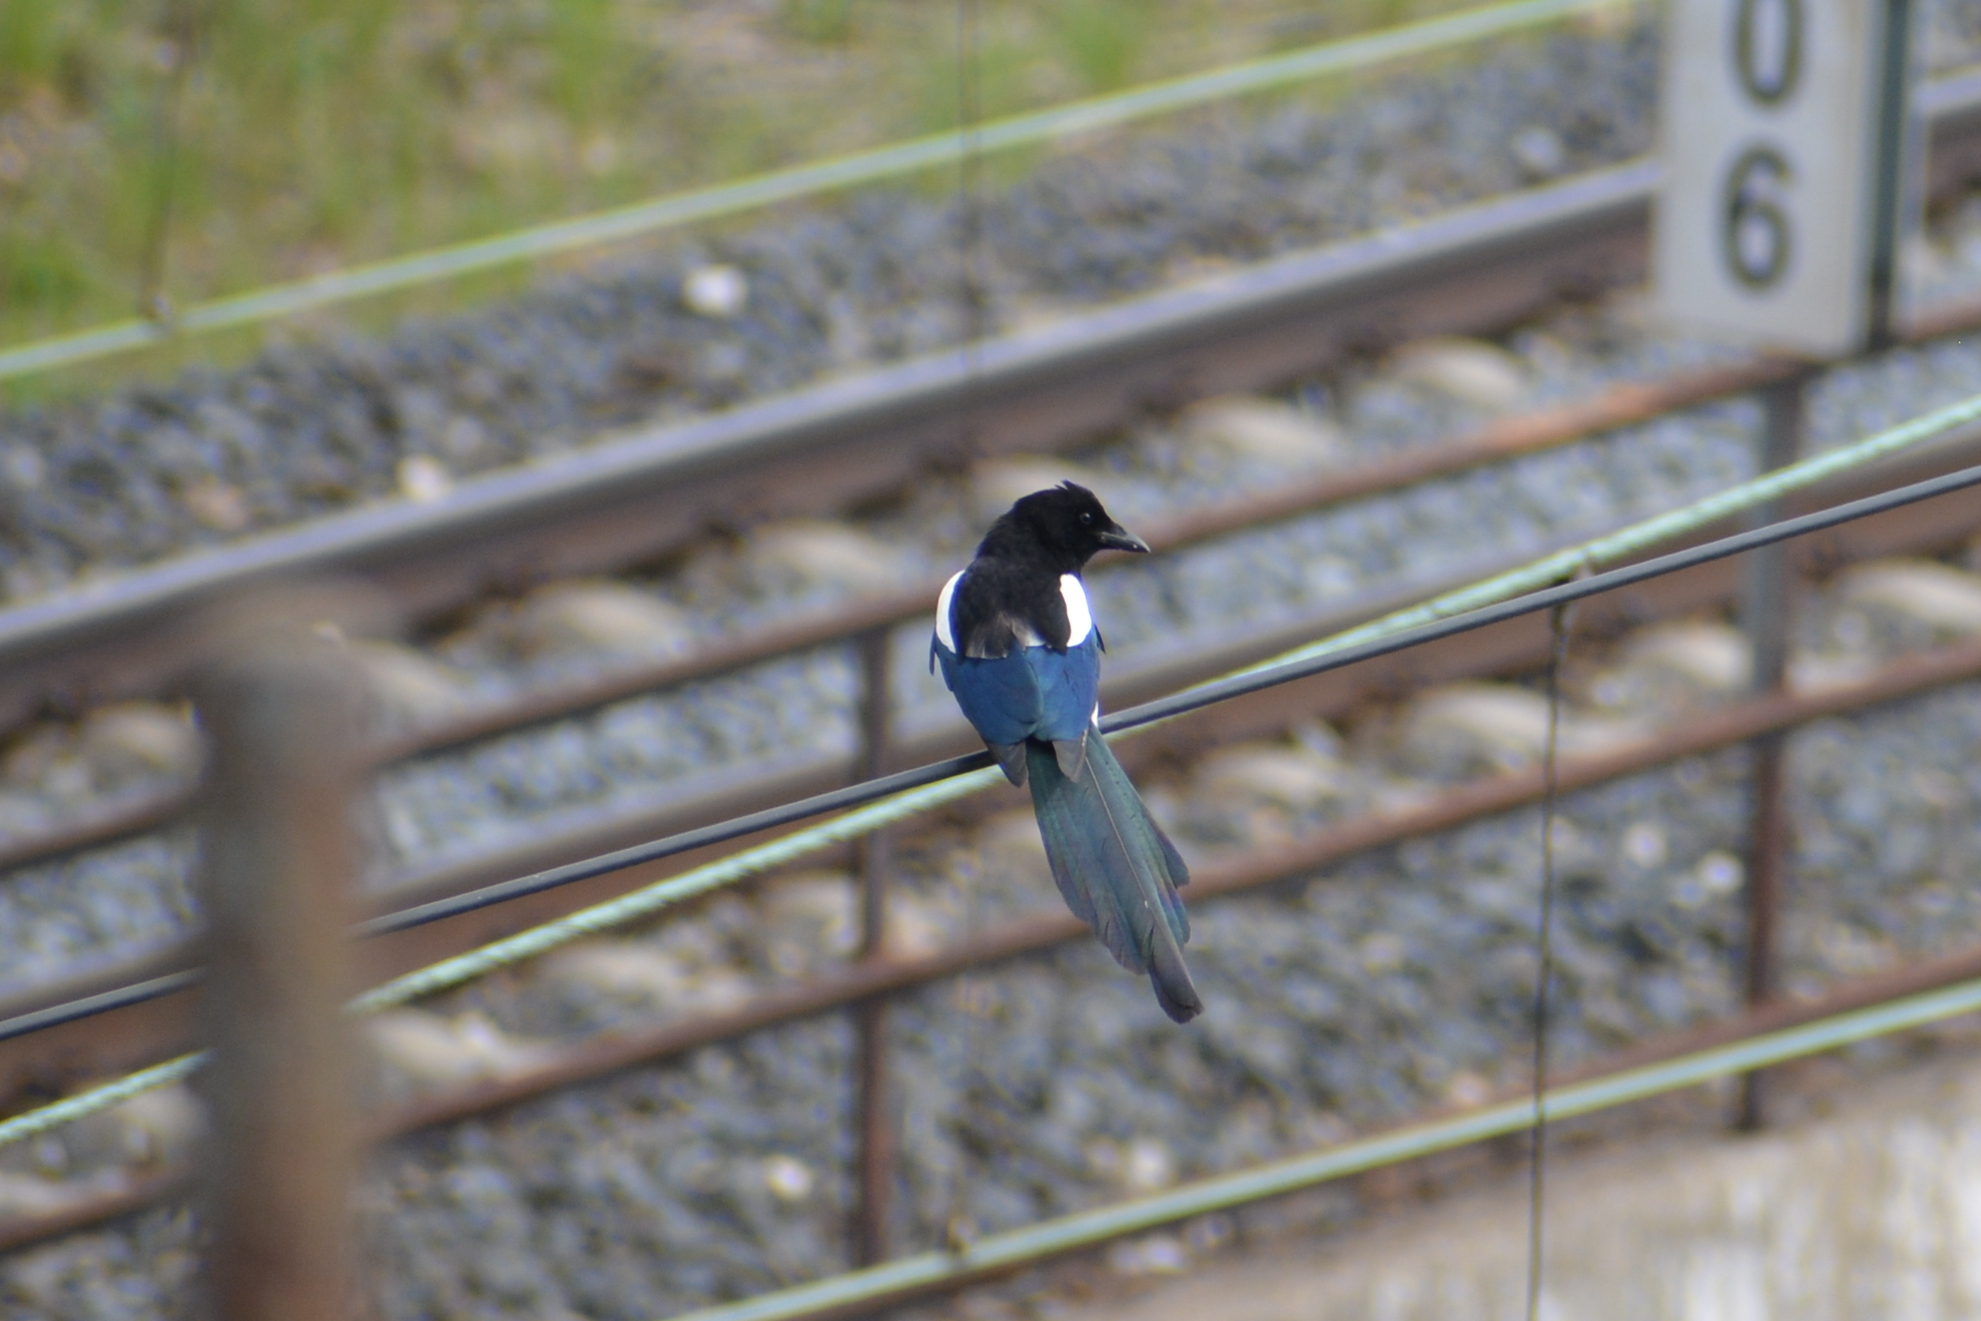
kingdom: Animalia
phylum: Chordata
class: Aves
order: Passeriformes
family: Corvidae
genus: Pica
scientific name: Pica pica
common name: Eurasian magpie
